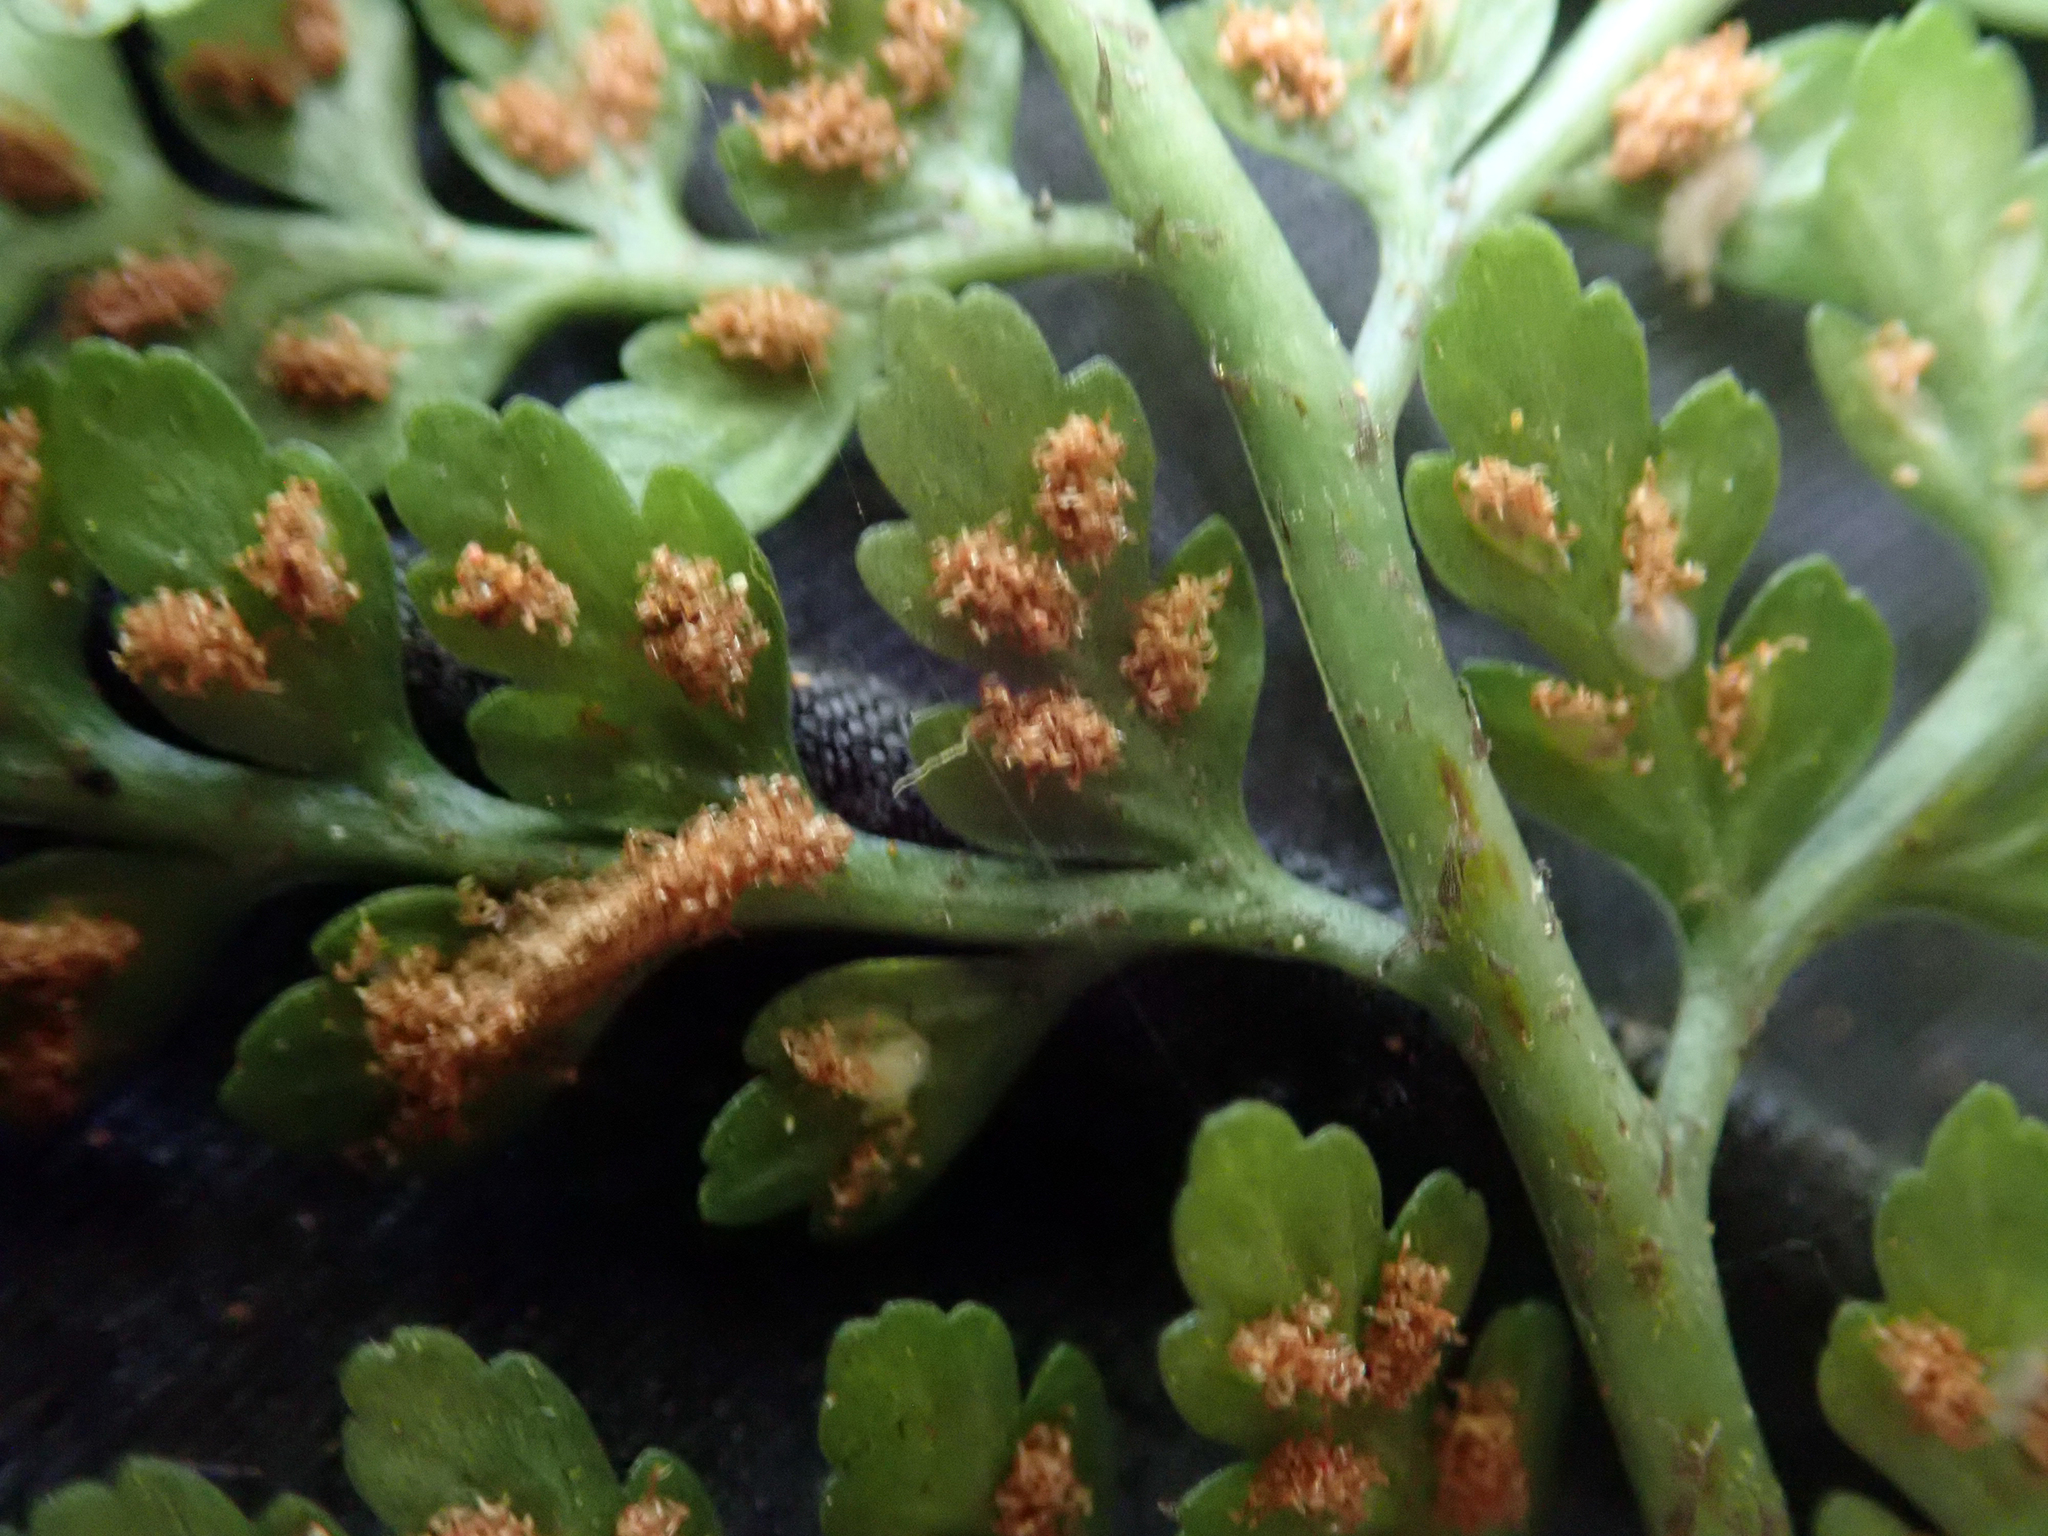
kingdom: Plantae
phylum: Tracheophyta
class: Polypodiopsida
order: Polypodiales
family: Aspleniaceae
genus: Asplenium
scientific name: Asplenium
